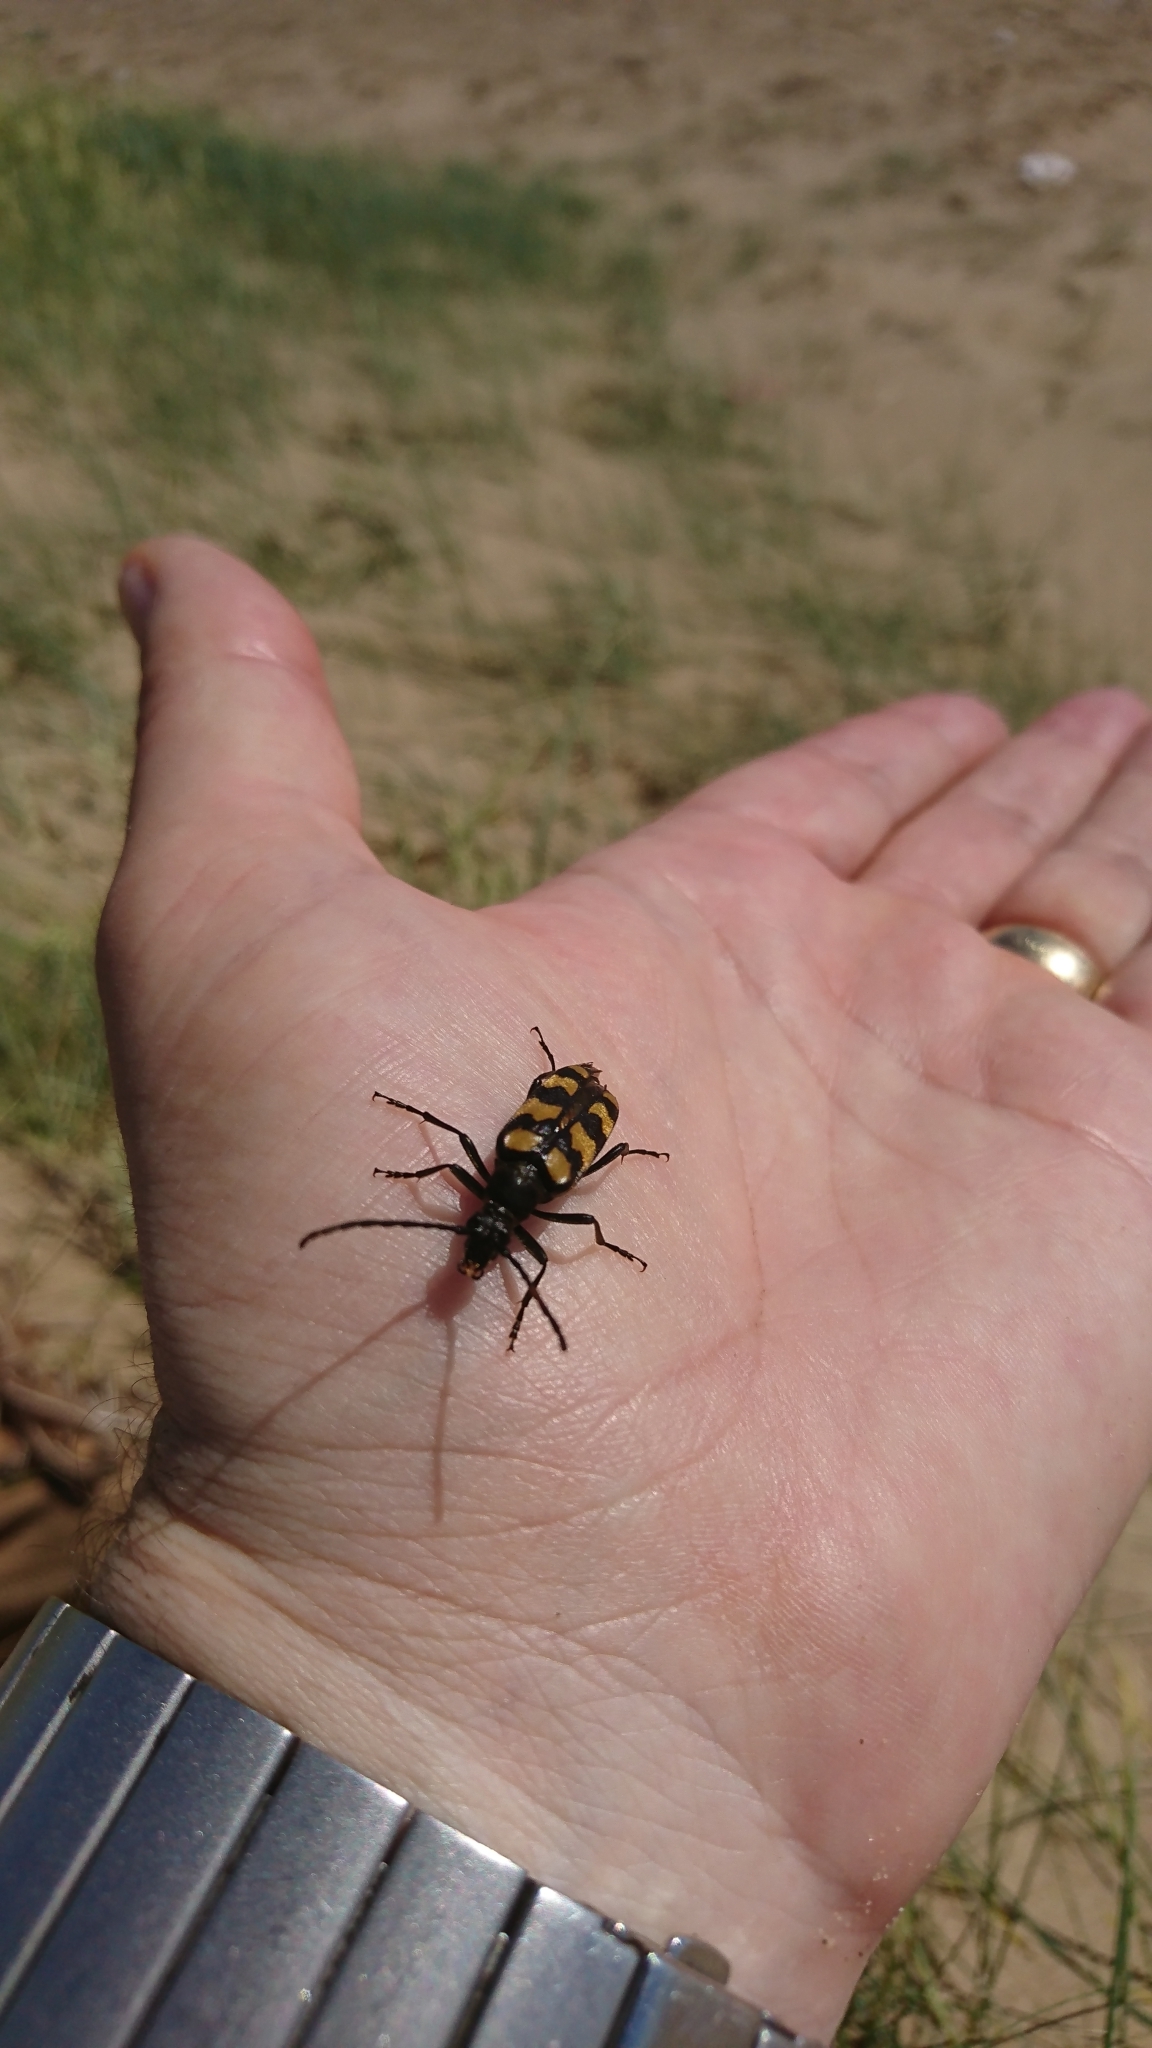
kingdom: Animalia
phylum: Arthropoda
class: Insecta
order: Coleoptera
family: Cerambycidae
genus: Leptura
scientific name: Leptura quadrifasciata
